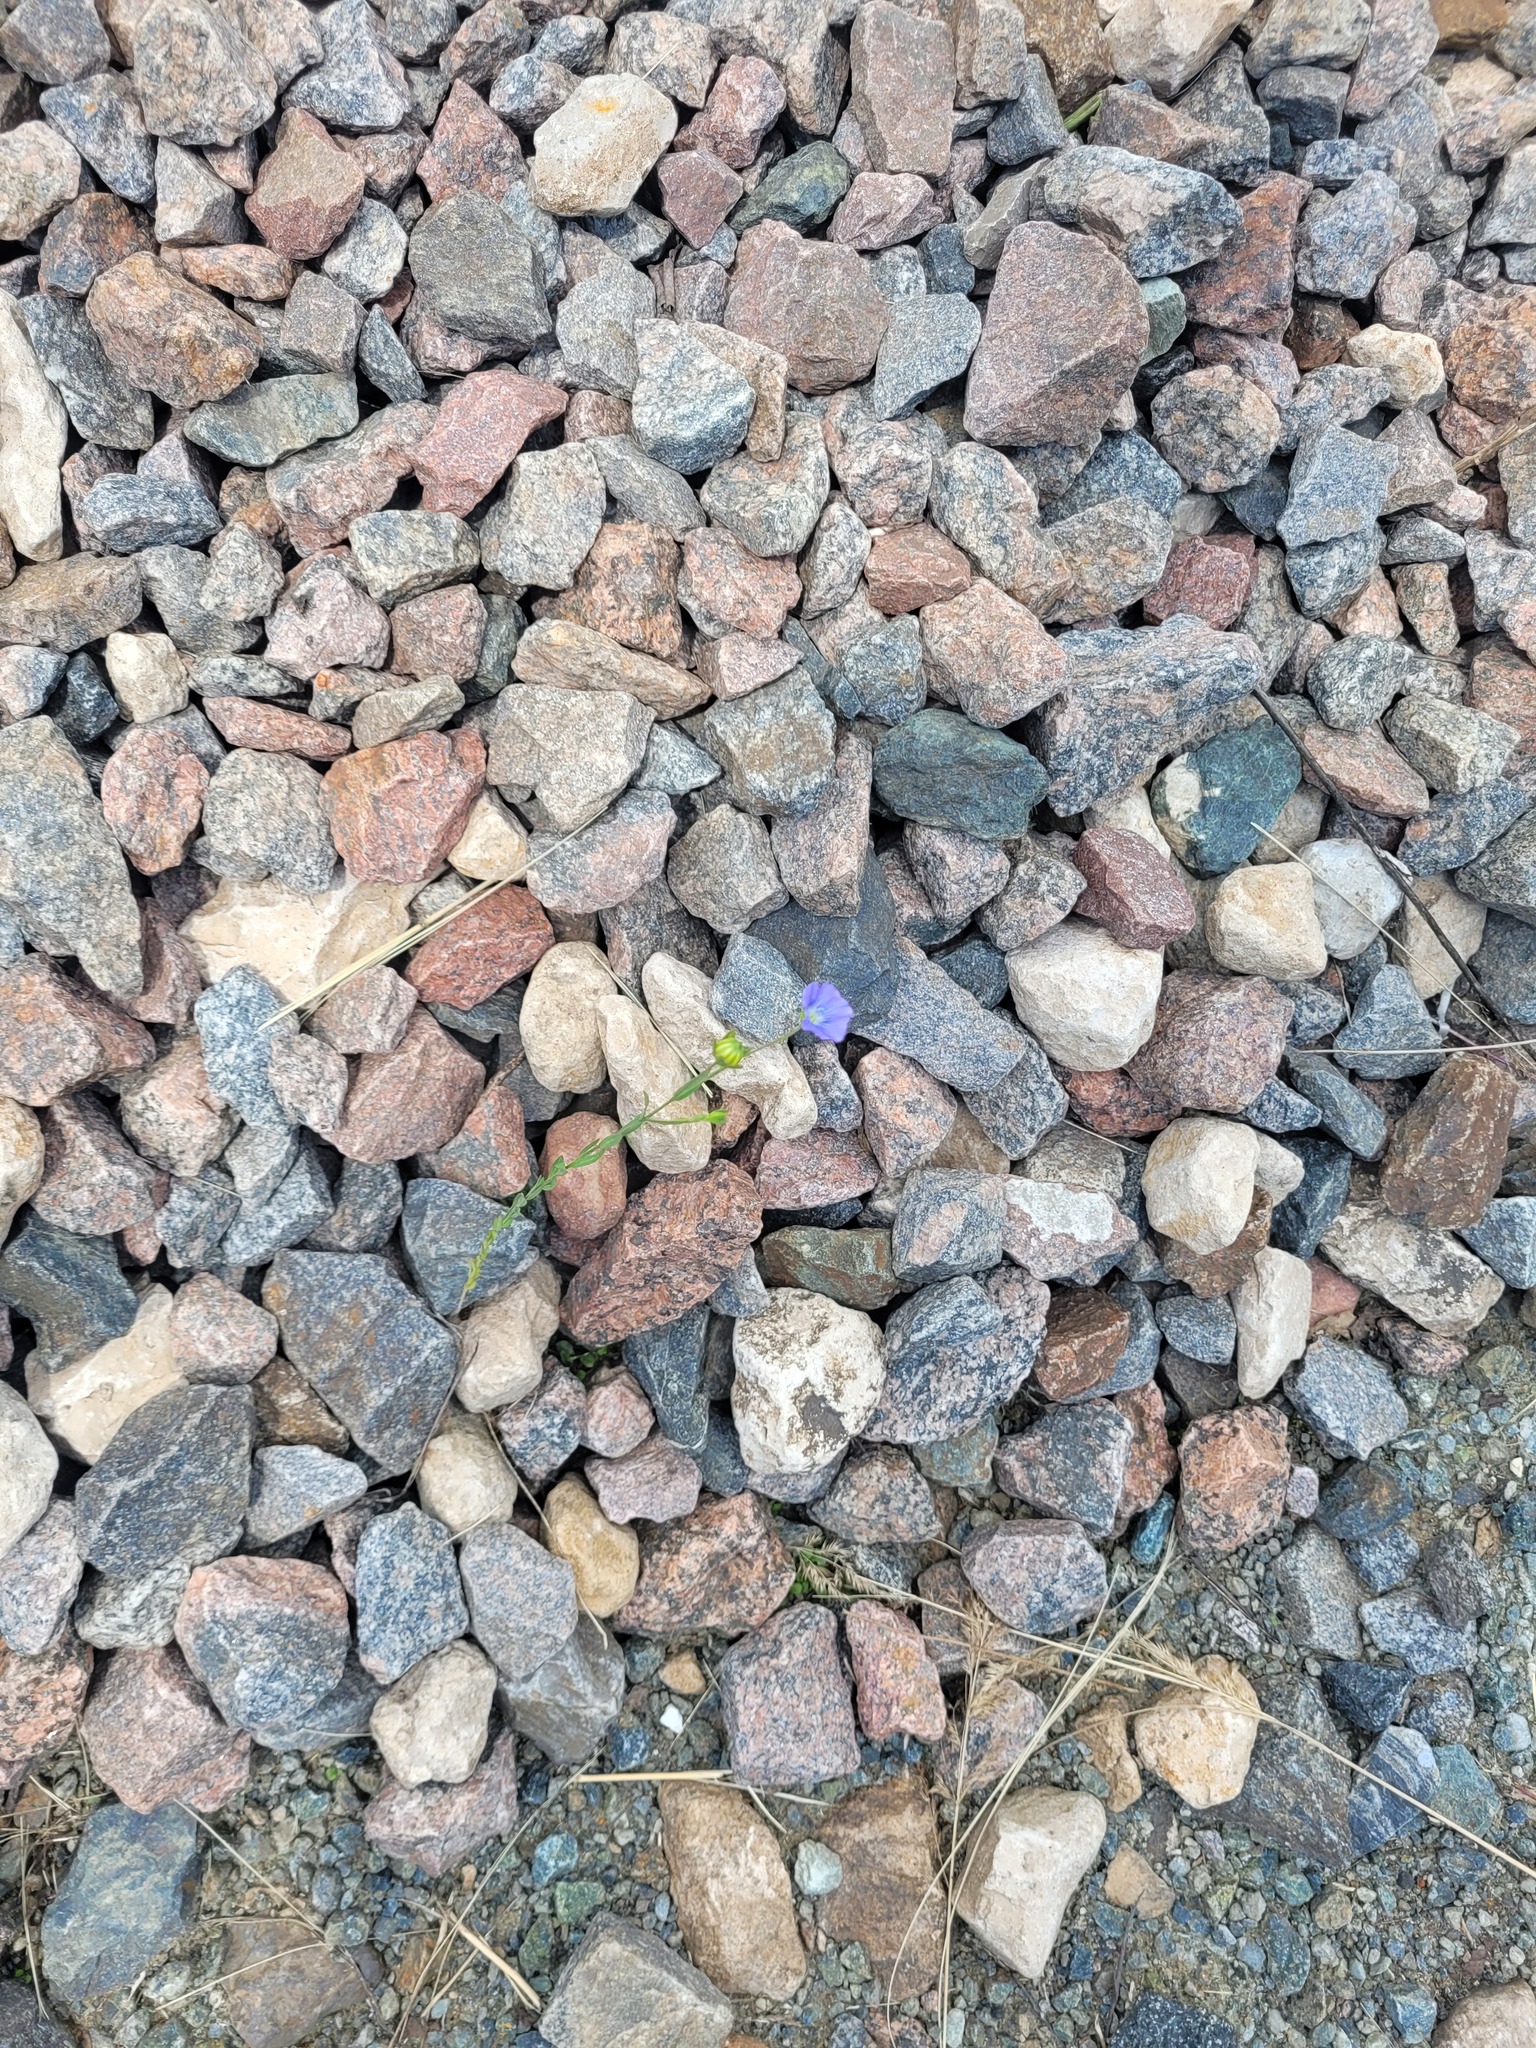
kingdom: Plantae
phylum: Tracheophyta
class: Magnoliopsida
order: Malpighiales
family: Linaceae
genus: Linum
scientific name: Linum usitatissimum
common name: Flax
